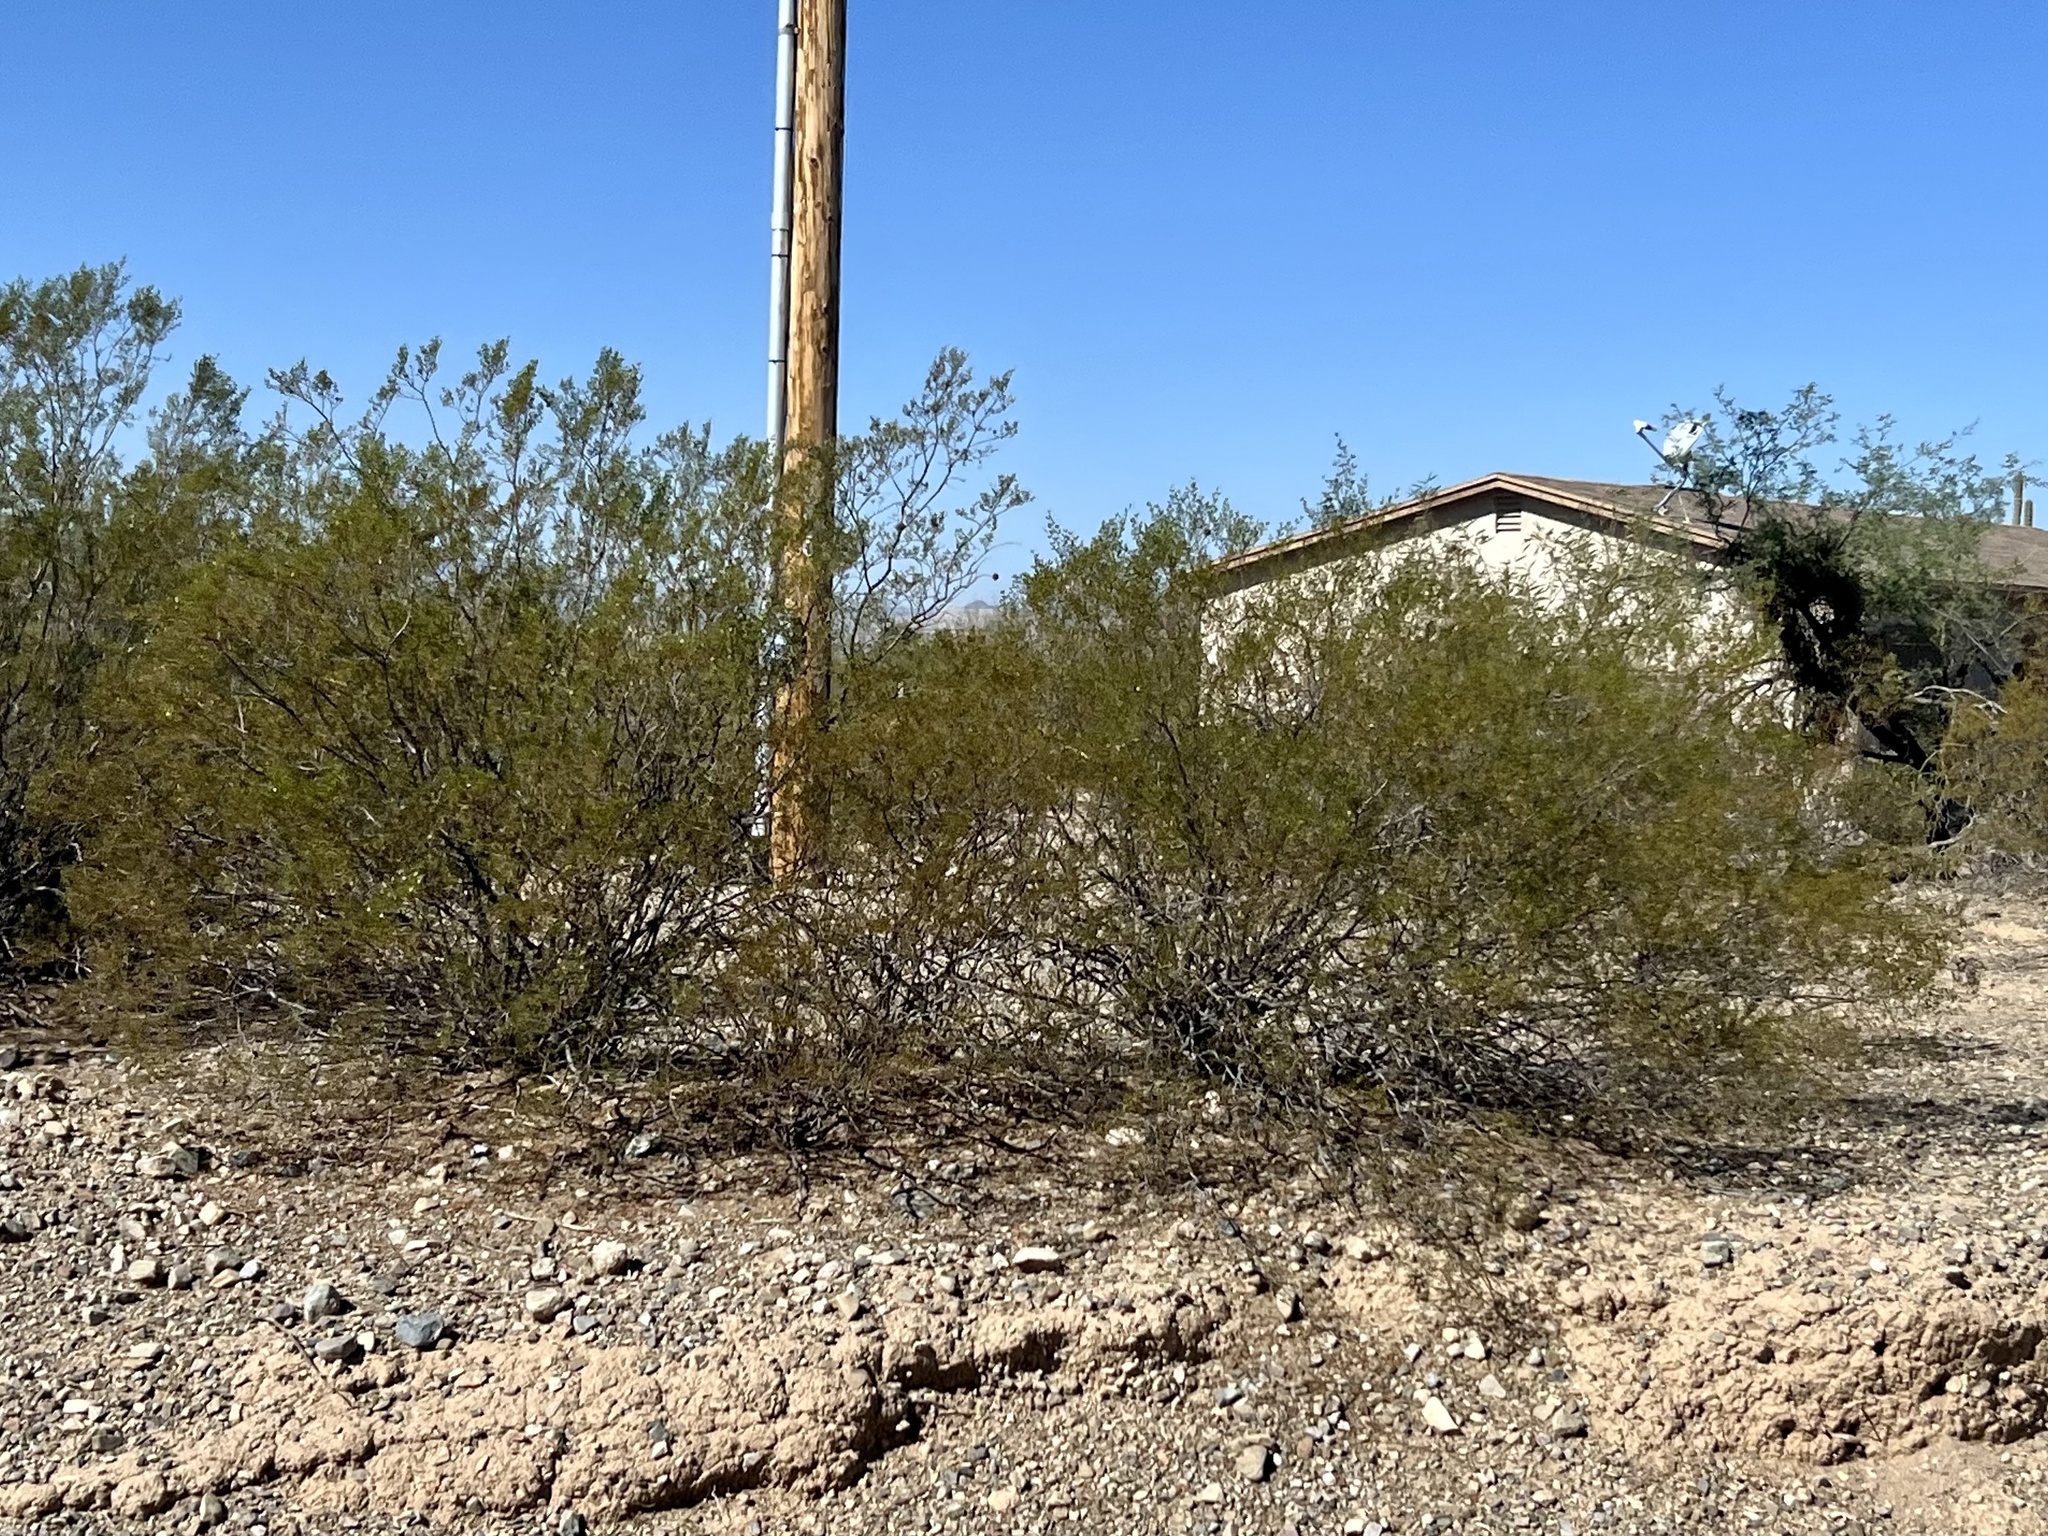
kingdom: Plantae
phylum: Tracheophyta
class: Magnoliopsida
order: Zygophyllales
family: Zygophyllaceae
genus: Larrea
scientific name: Larrea tridentata
